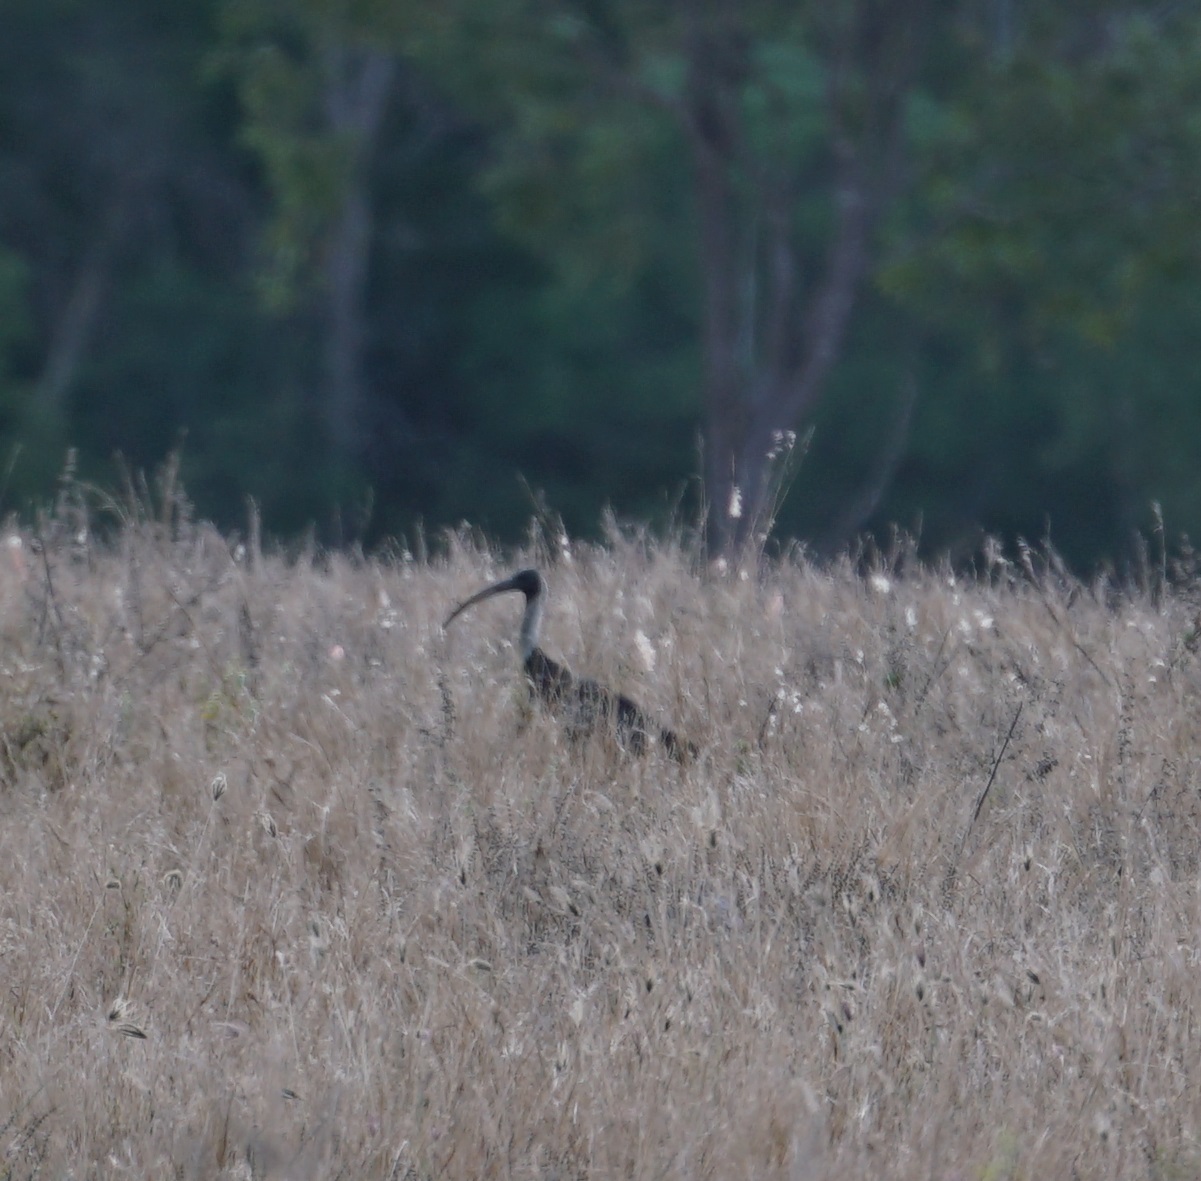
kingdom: Animalia
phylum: Chordata
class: Aves
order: Pelecaniformes
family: Threskiornithidae
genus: Threskiornis
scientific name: Threskiornis spinicollis
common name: Straw-necked ibis
